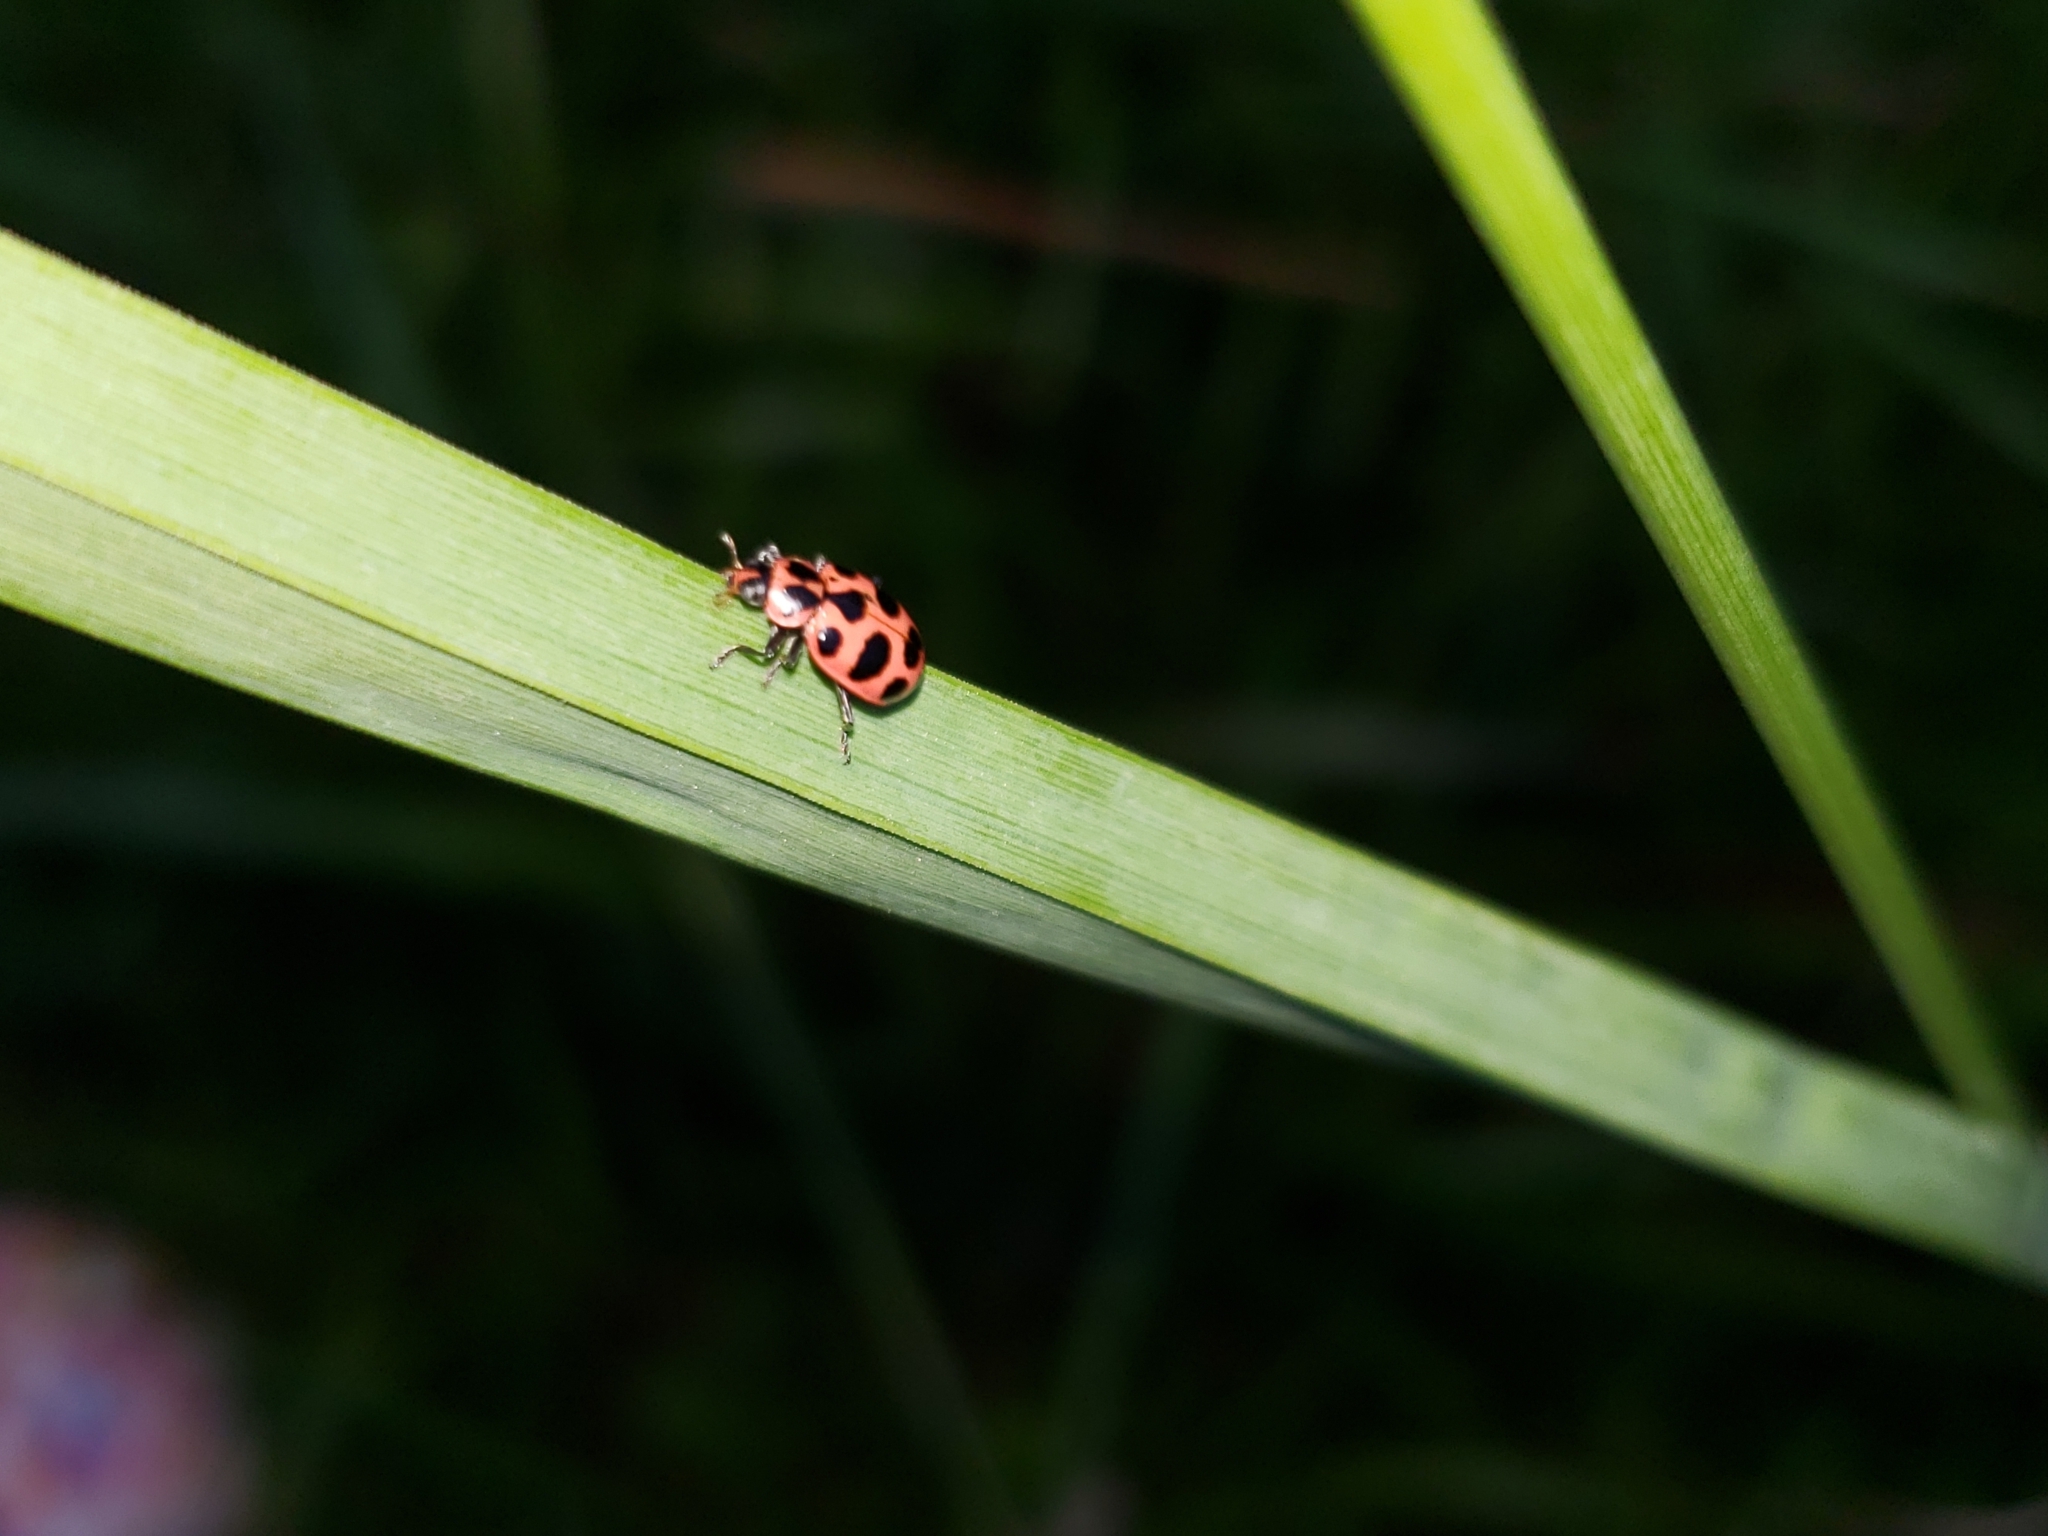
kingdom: Animalia
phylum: Arthropoda
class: Insecta
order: Coleoptera
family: Coccinellidae
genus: Coleomegilla
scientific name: Coleomegilla maculata
